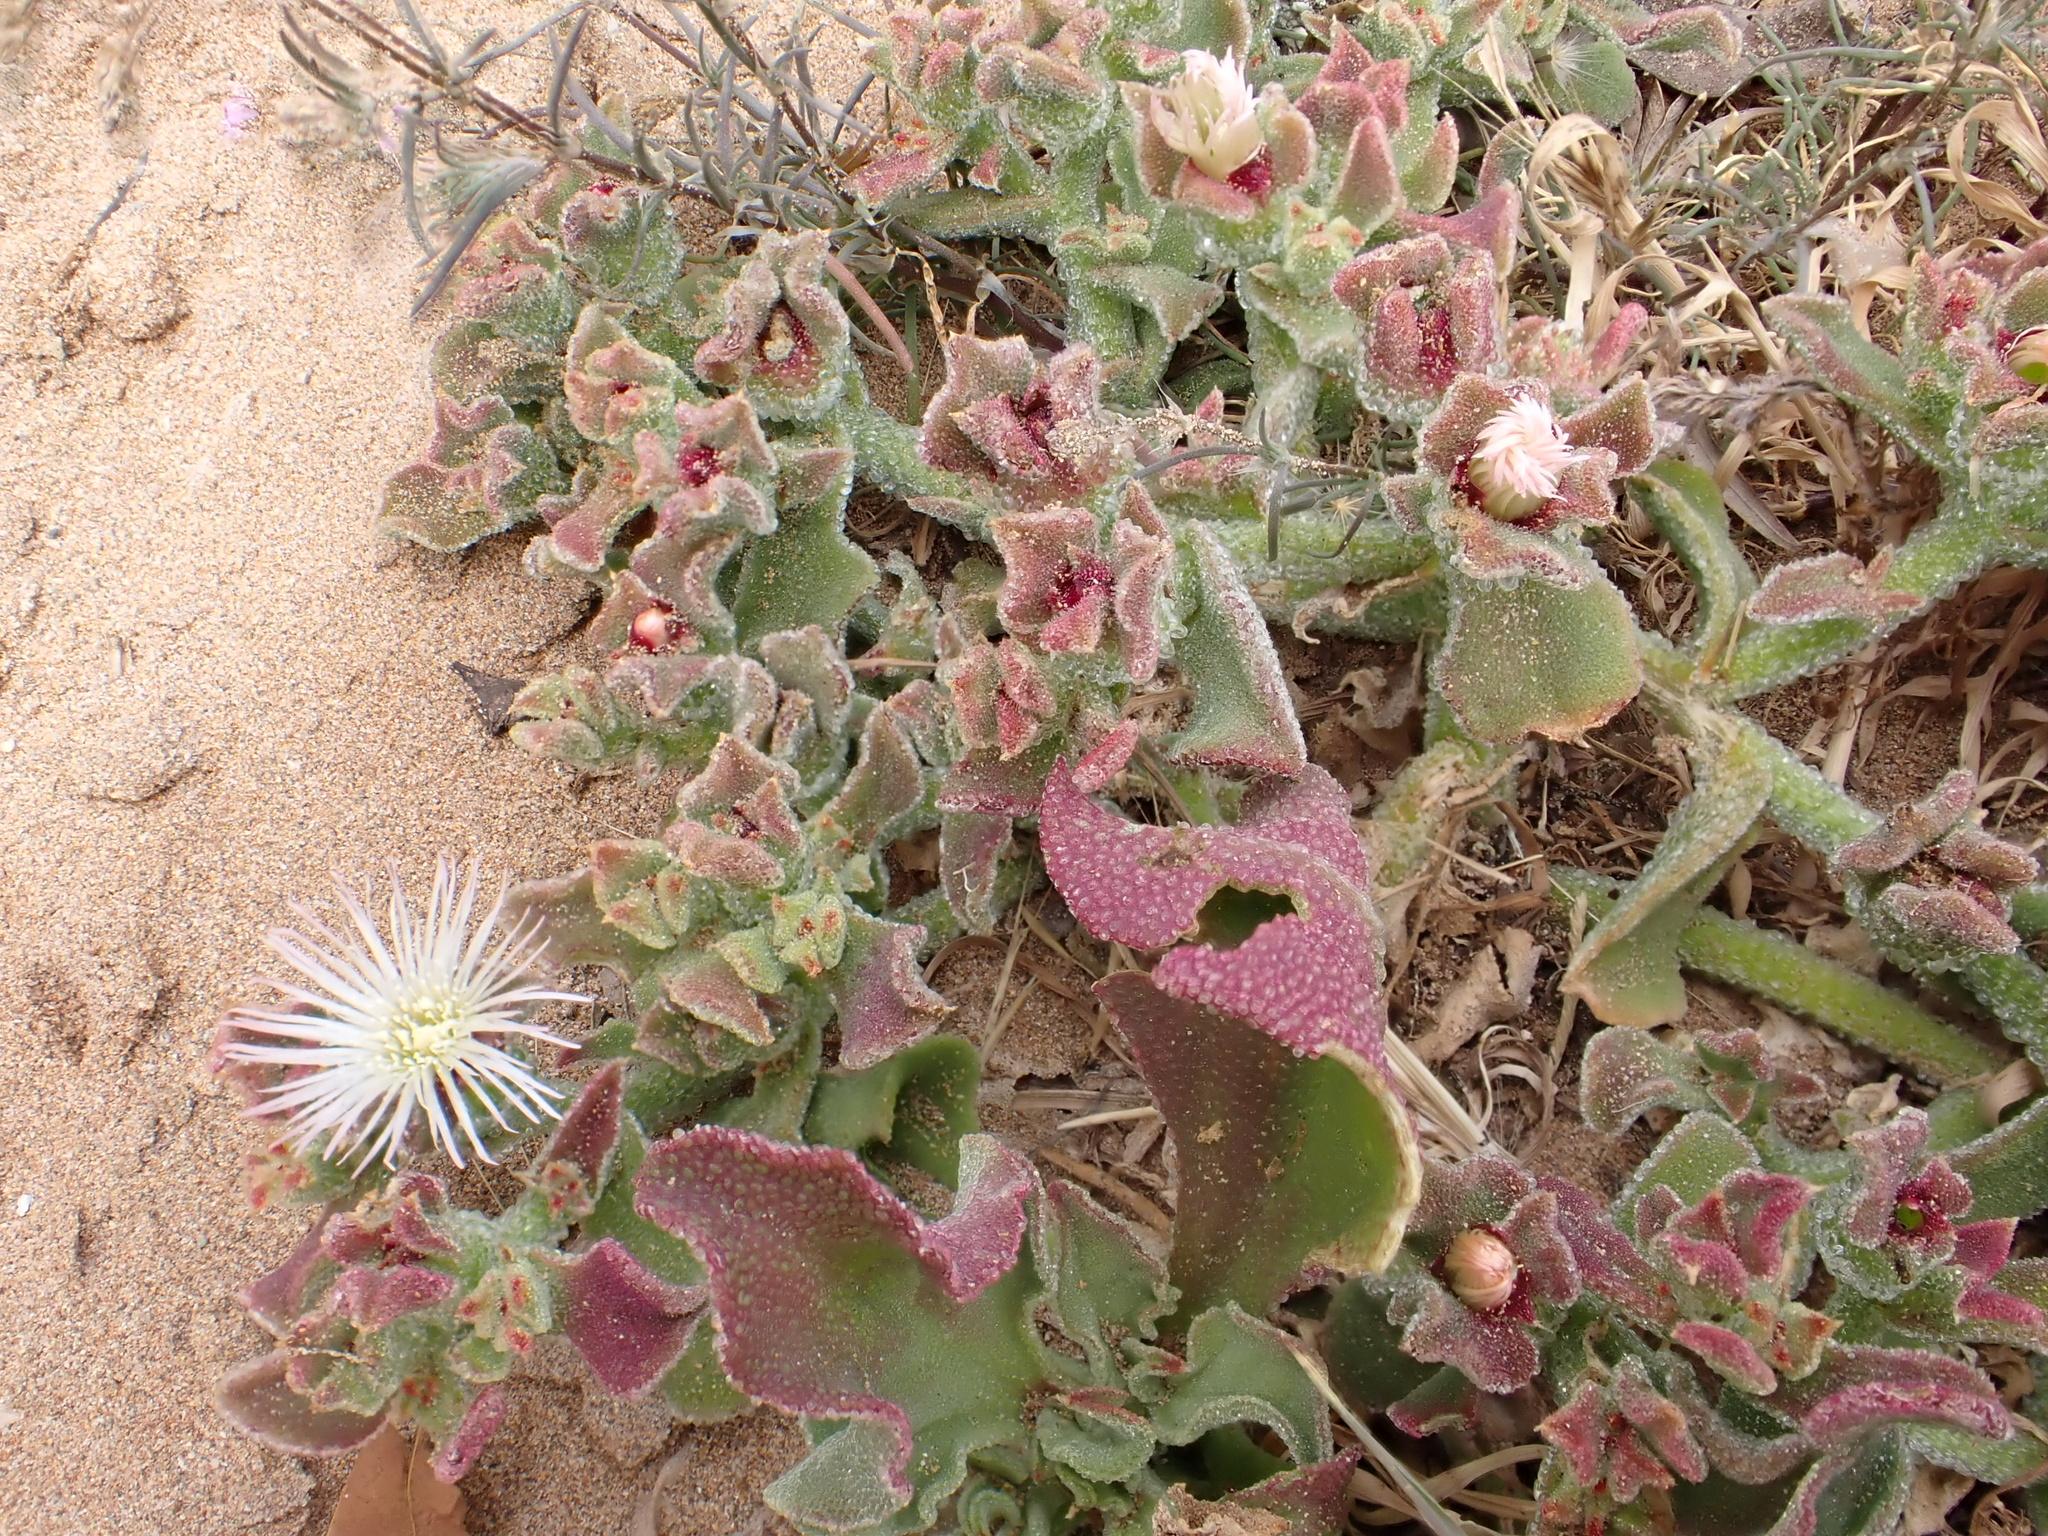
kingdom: Plantae
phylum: Tracheophyta
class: Magnoliopsida
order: Caryophyllales
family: Aizoaceae
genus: Mesembryanthemum
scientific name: Mesembryanthemum crystallinum
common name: Common iceplant
